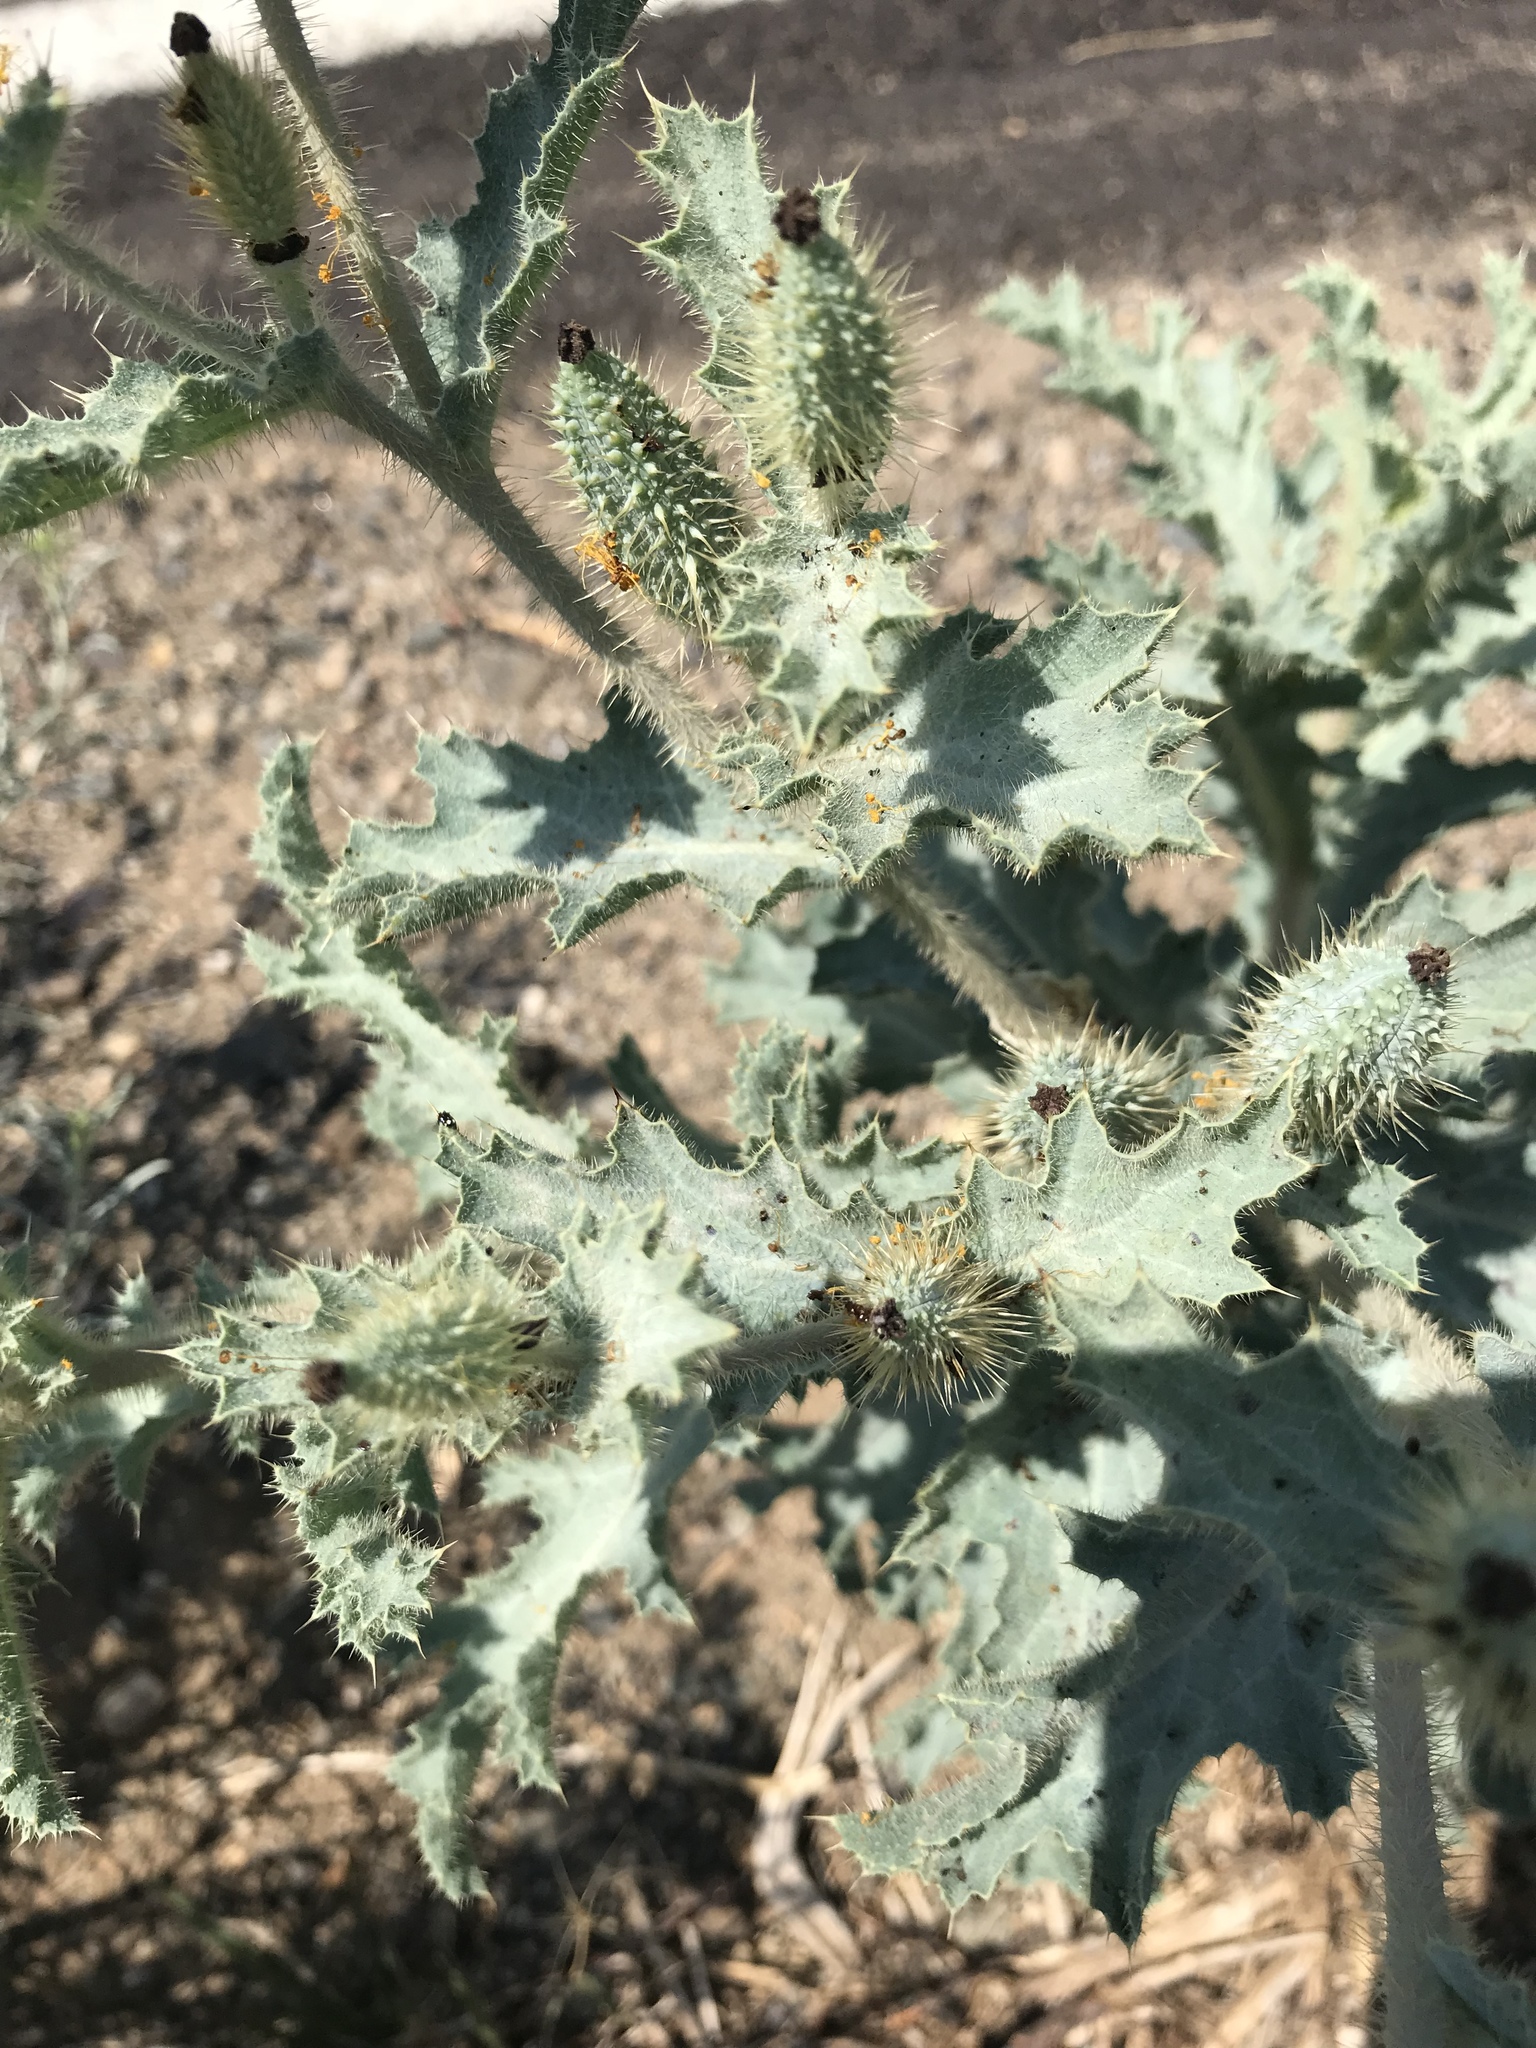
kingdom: Plantae
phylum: Tracheophyta
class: Magnoliopsida
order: Ranunculales
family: Papaveraceae
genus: Argemone
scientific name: Argemone munita
